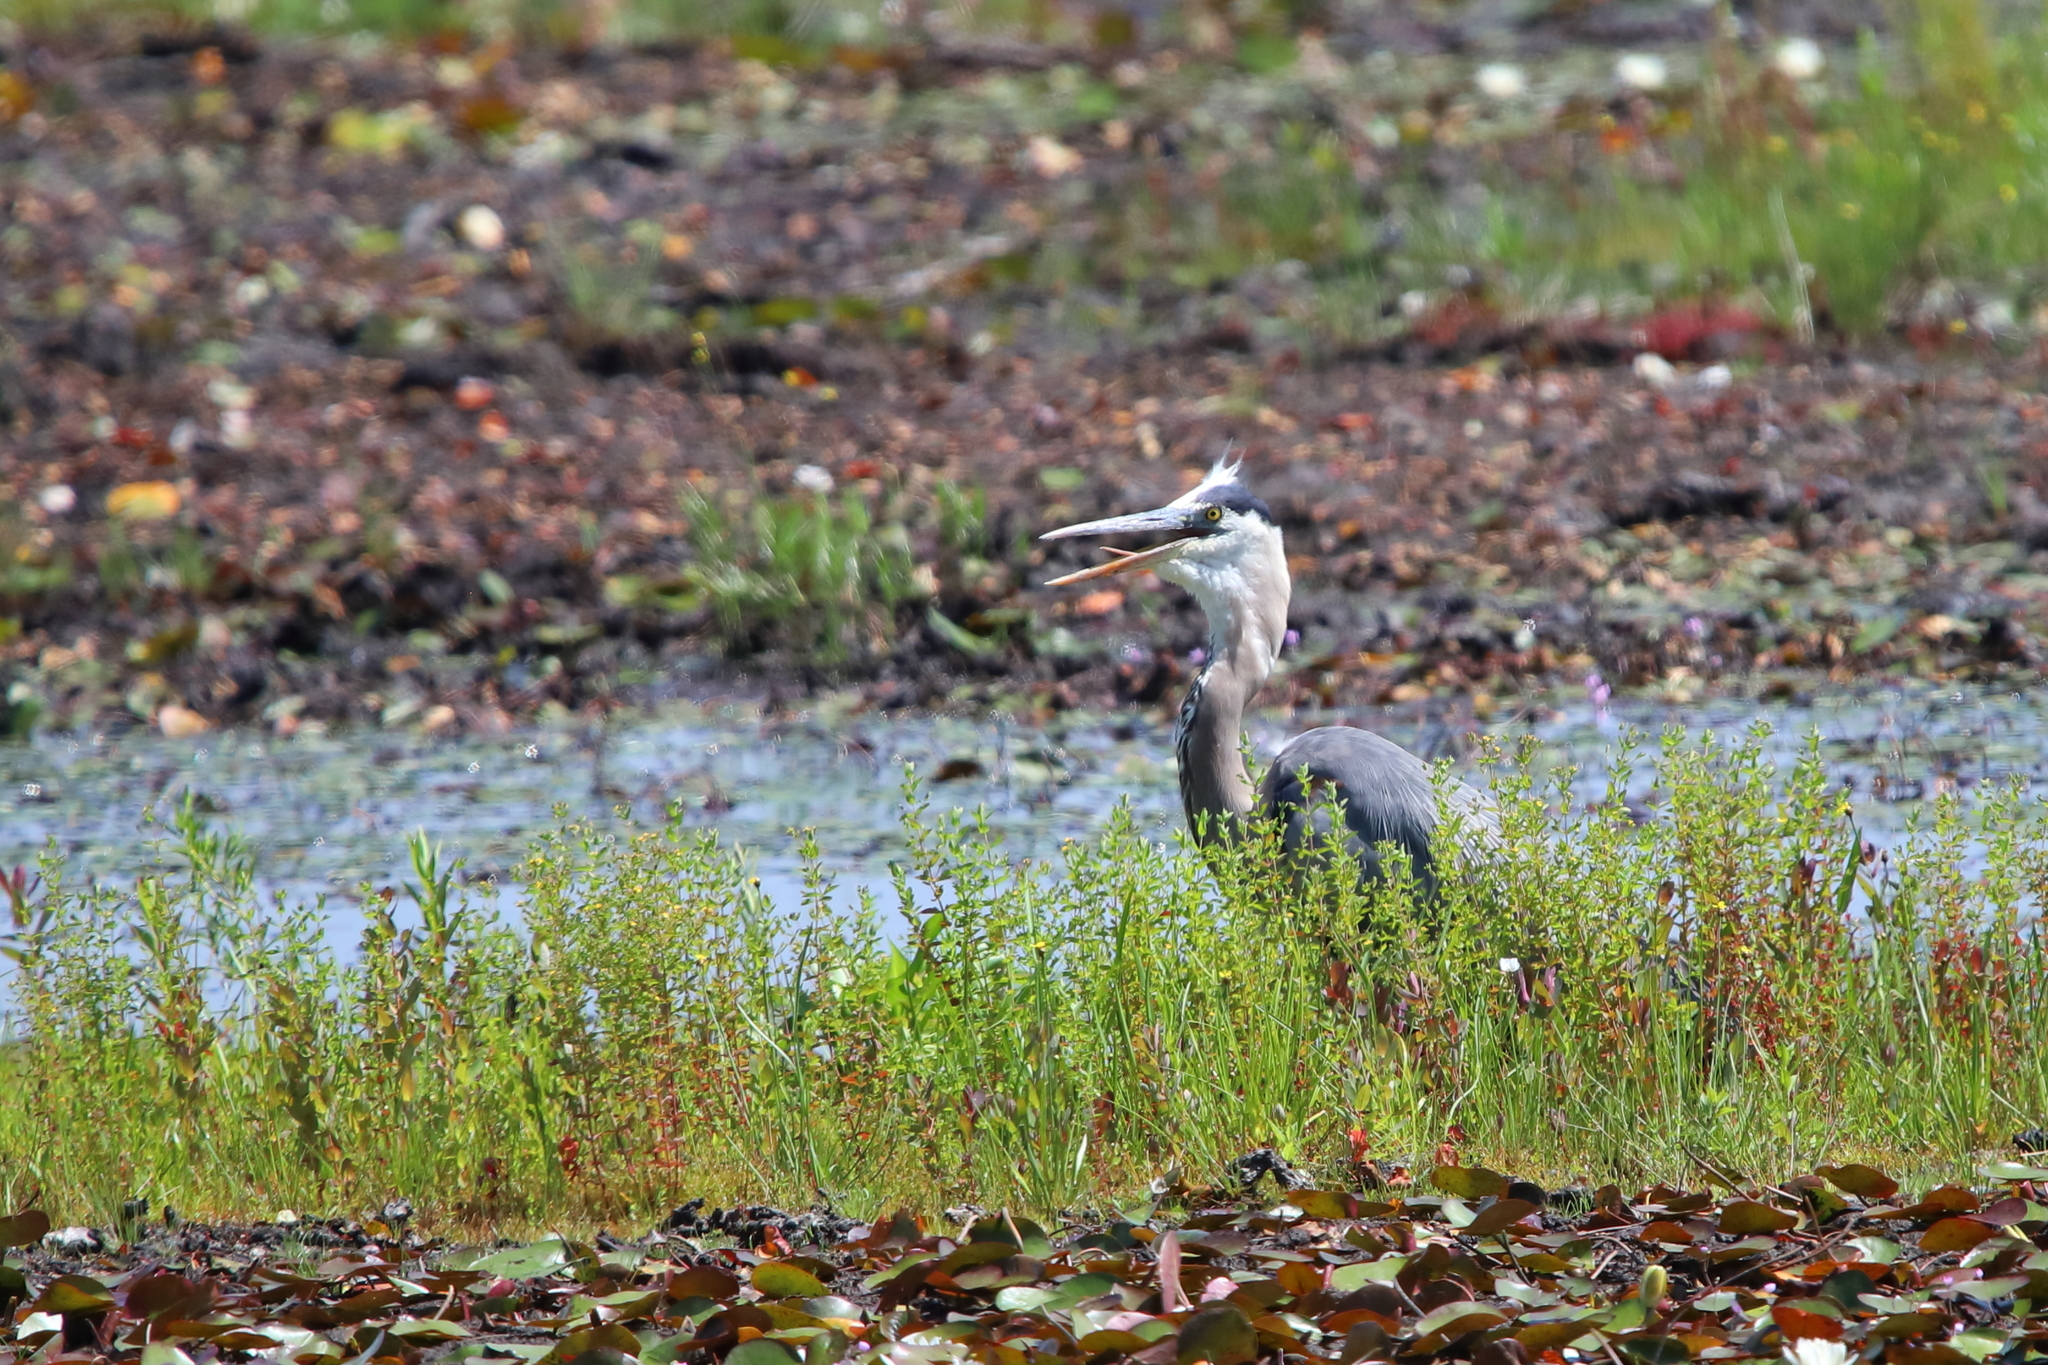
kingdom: Animalia
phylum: Chordata
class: Aves
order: Pelecaniformes
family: Ardeidae
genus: Ardea
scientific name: Ardea herodias
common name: Great blue heron
